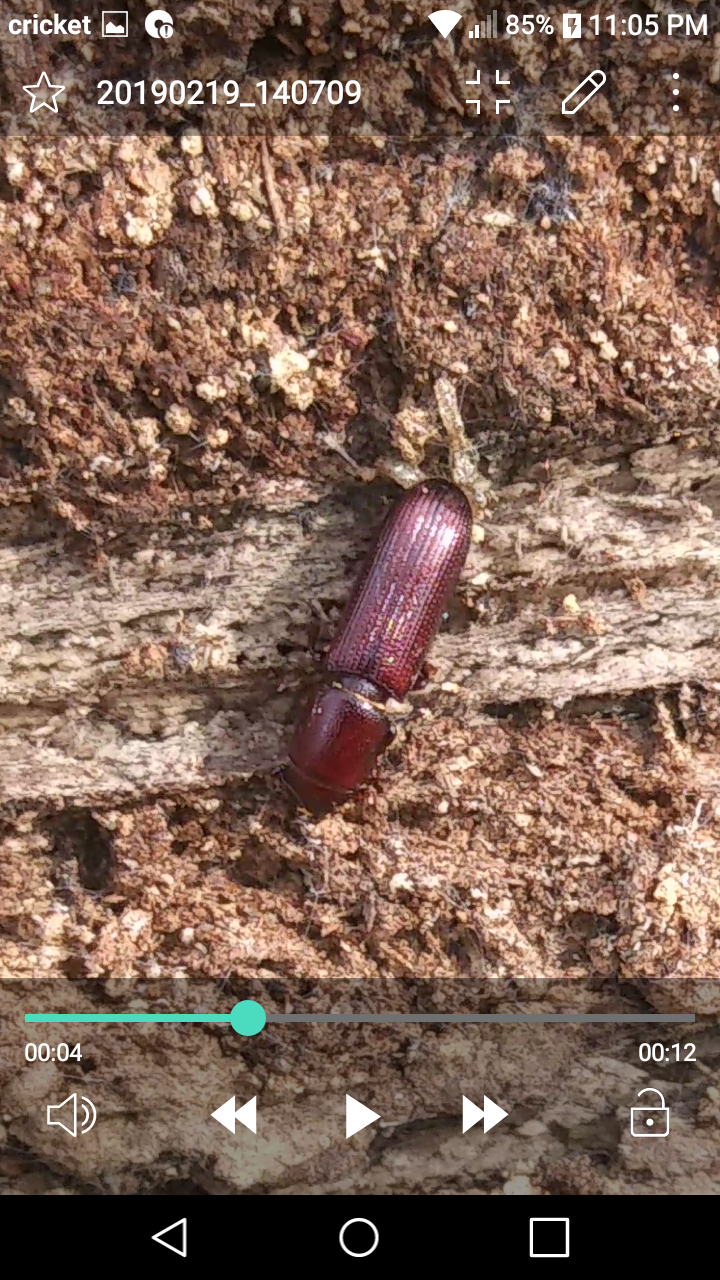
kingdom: Animalia
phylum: Arthropoda
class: Insecta
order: Coleoptera
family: Trogossitidae
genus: Airora
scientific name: Airora cylindrica
